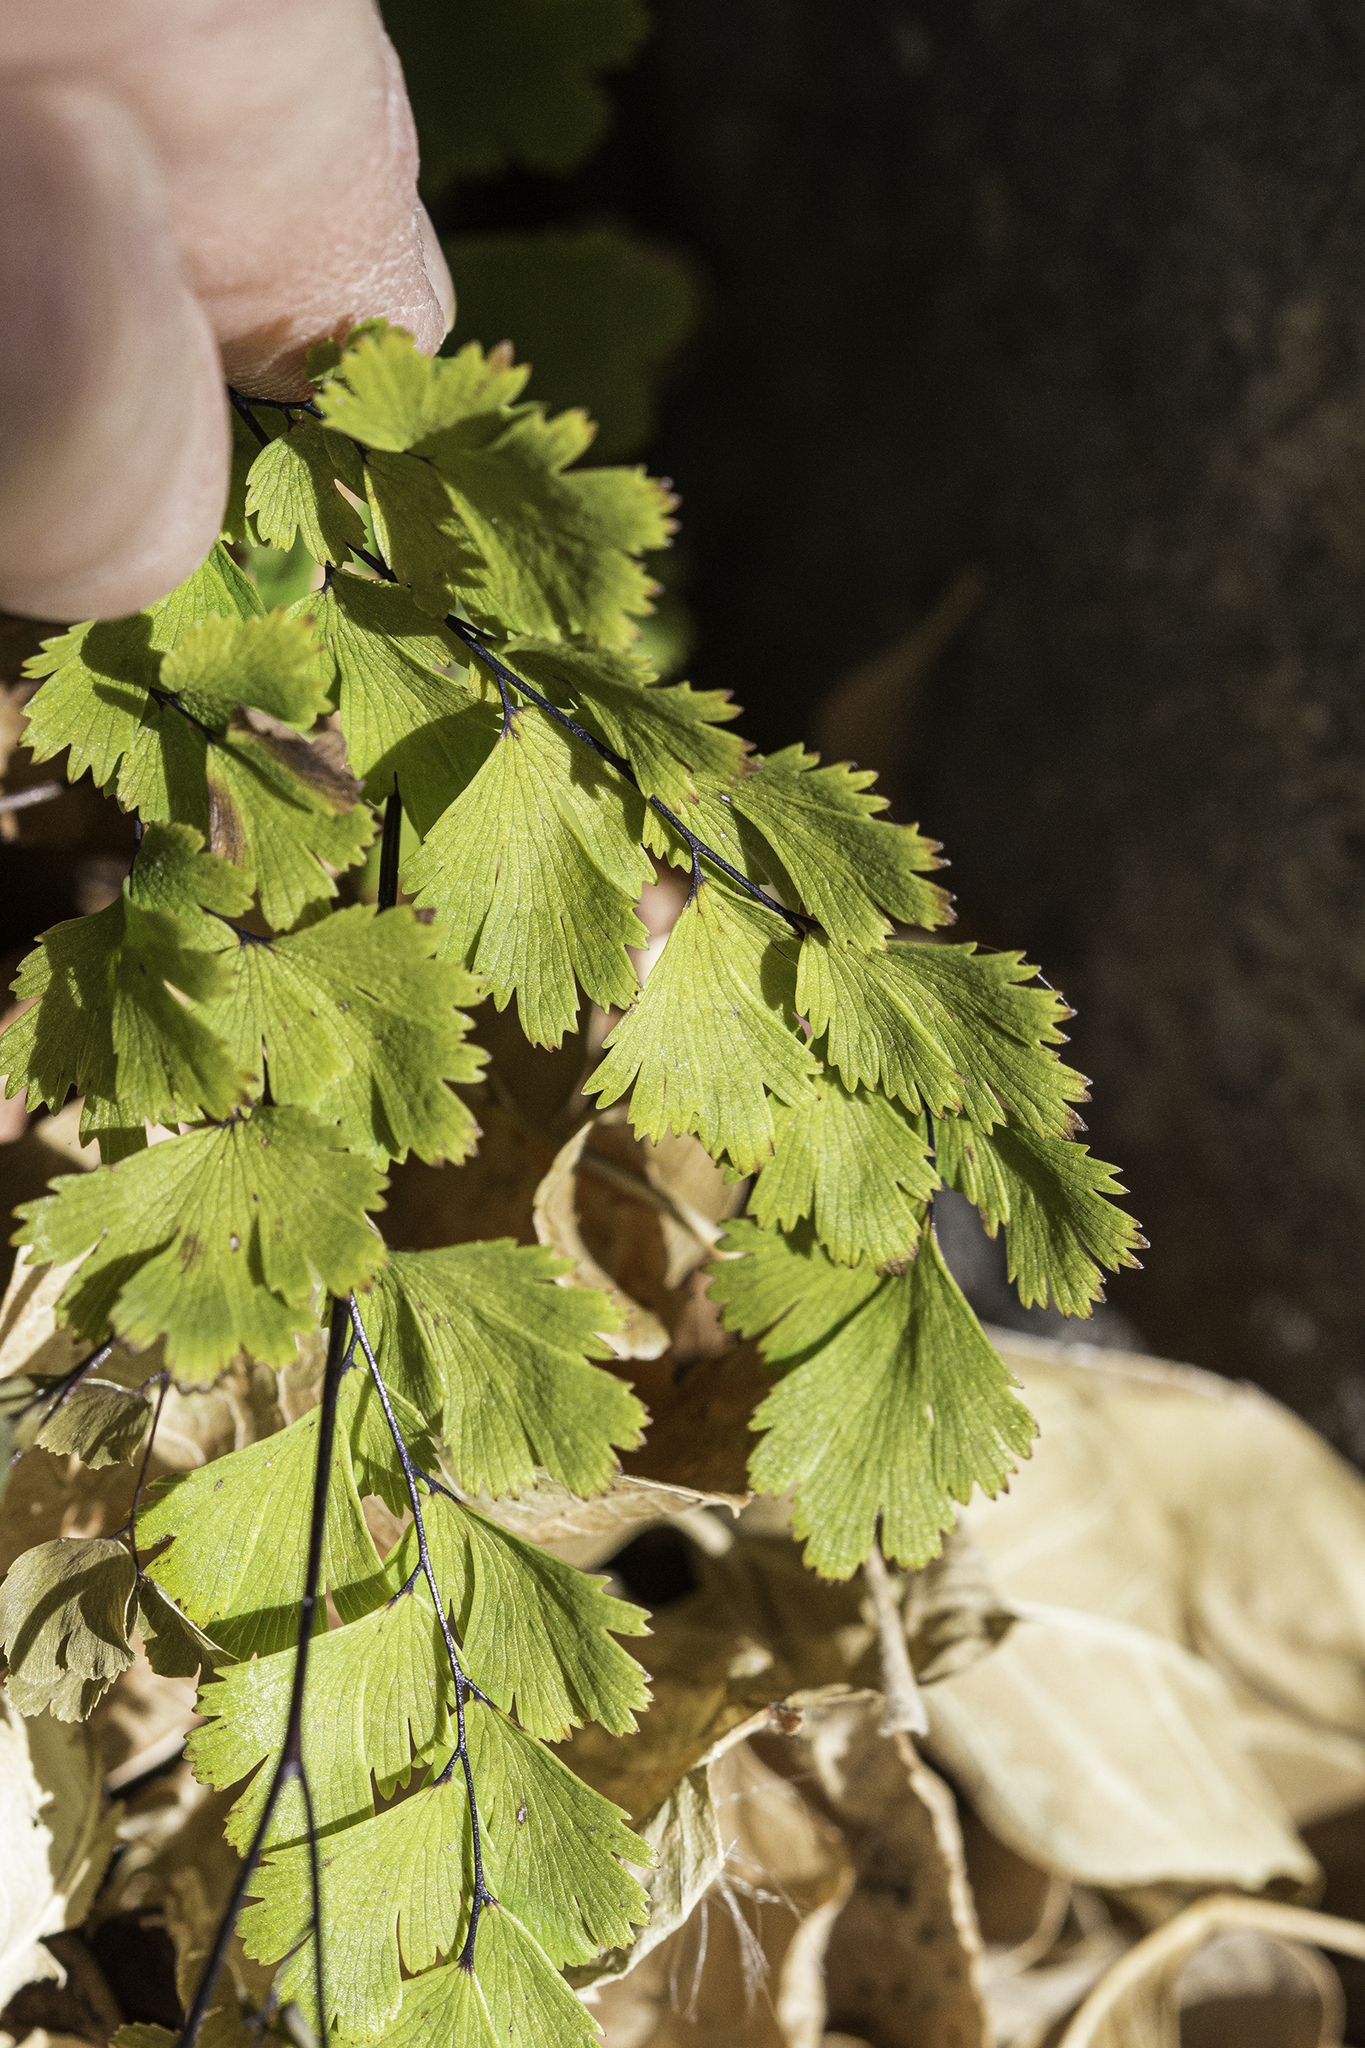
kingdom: Plantae
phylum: Tracheophyta
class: Polypodiopsida
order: Polypodiales
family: Pteridaceae
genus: Adiantum
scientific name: Adiantum capillus-veneris
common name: Maidenhair fern
